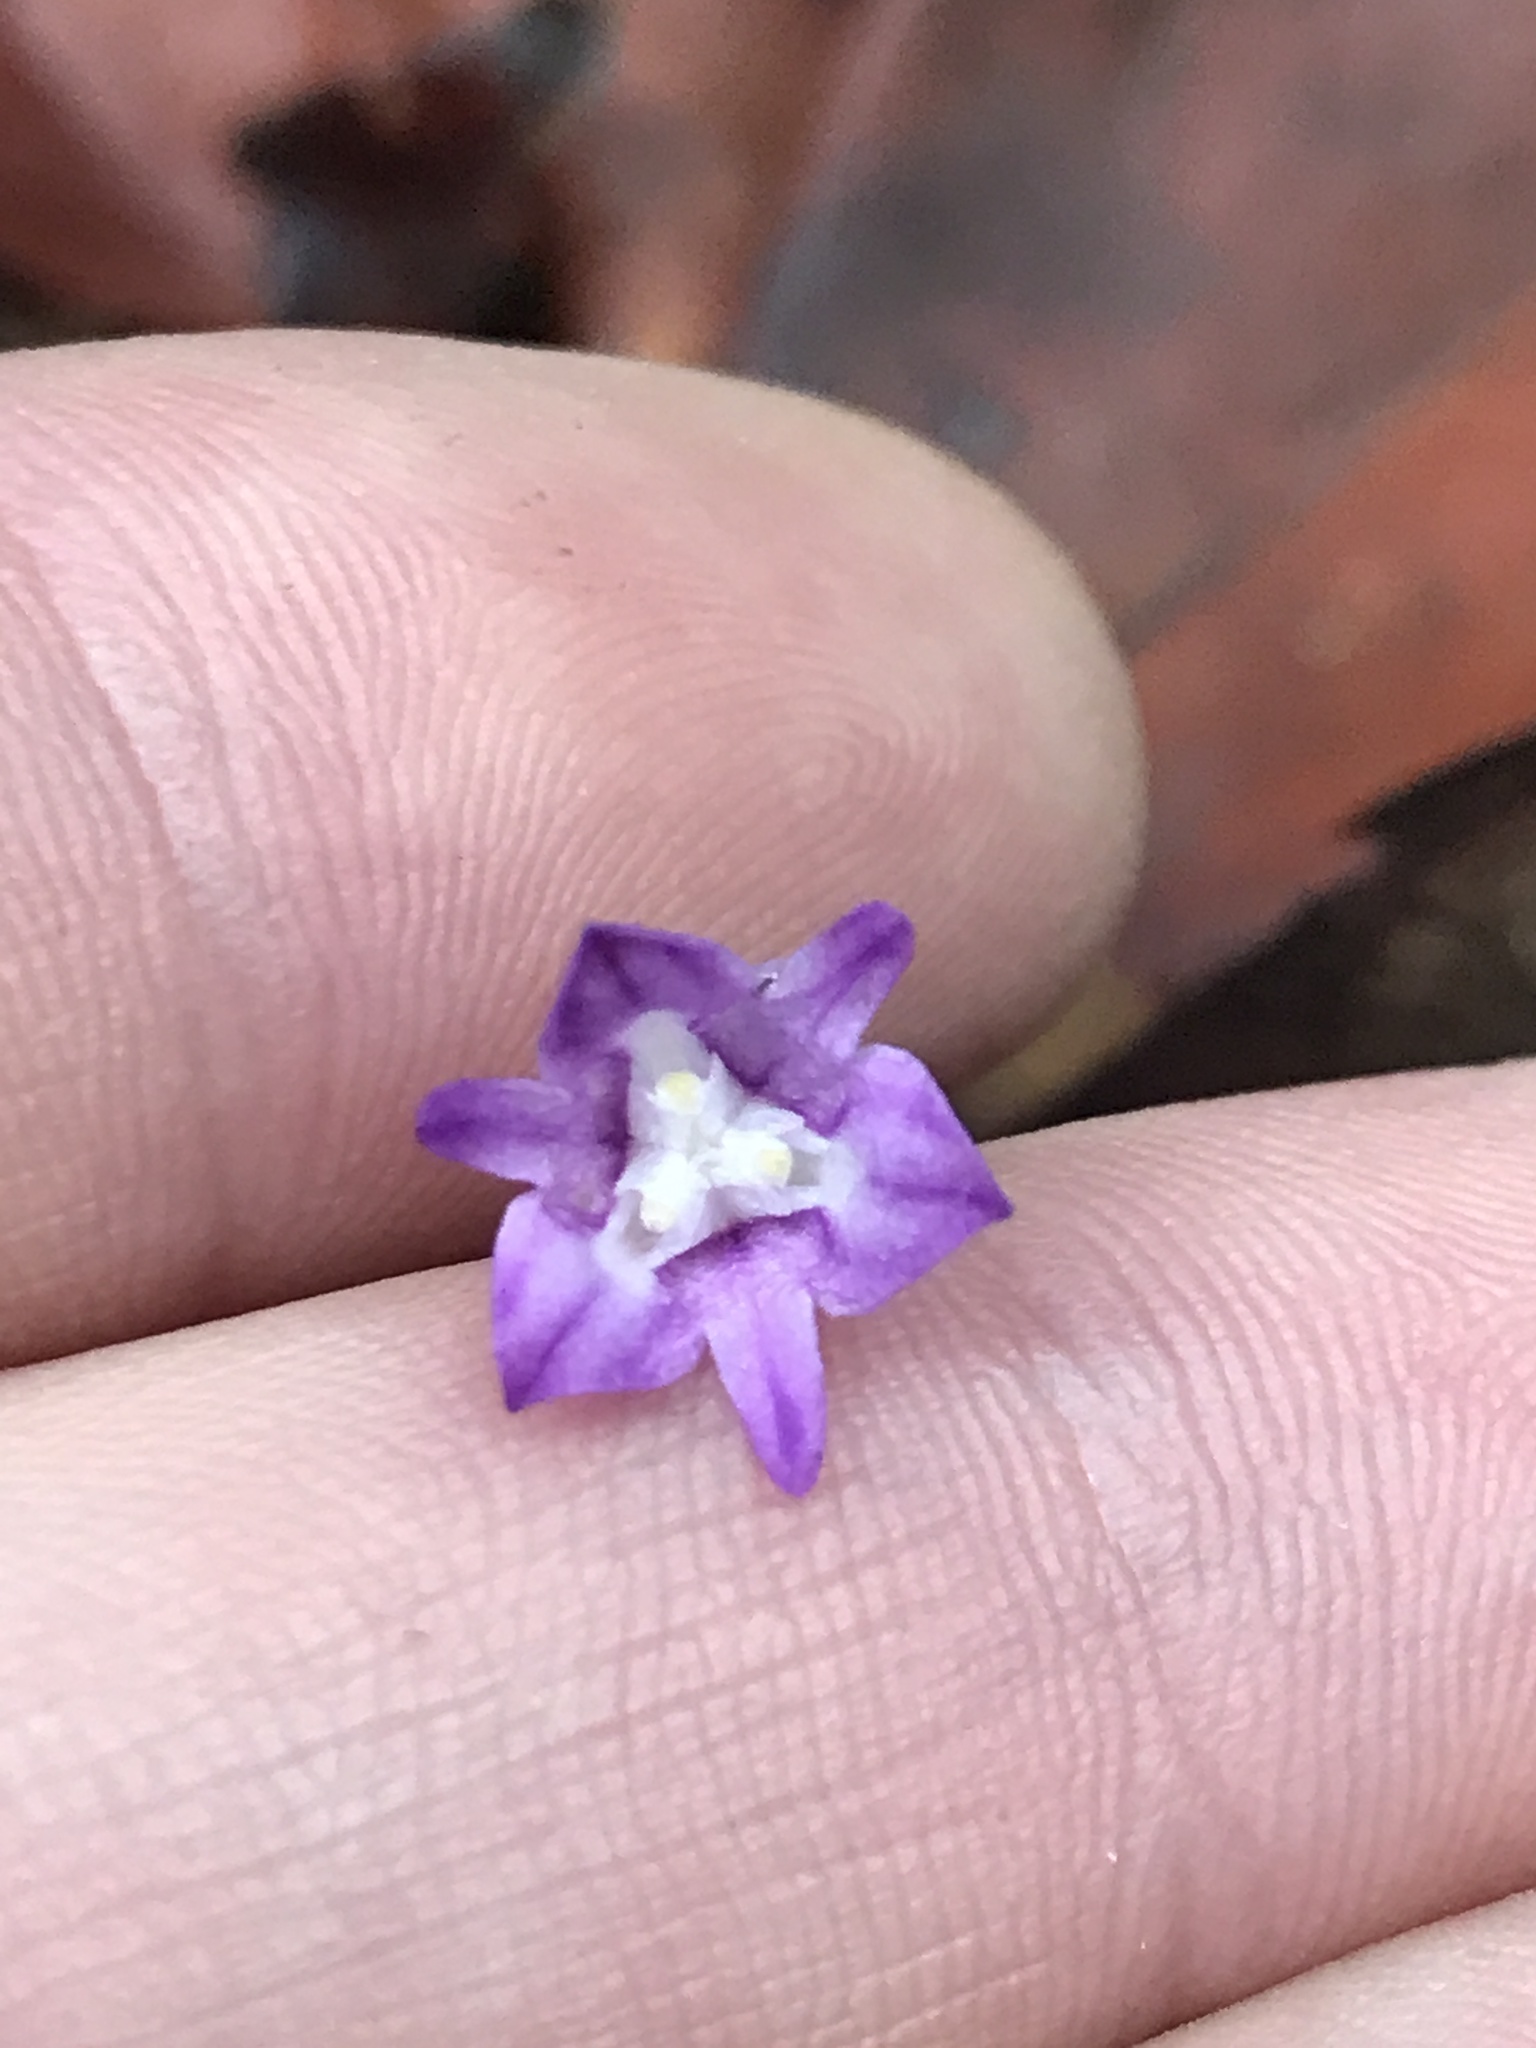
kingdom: Plantae
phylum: Tracheophyta
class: Liliopsida
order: Dioscoreales
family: Burmanniaceae
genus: Apteria
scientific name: Apteria aphylla
